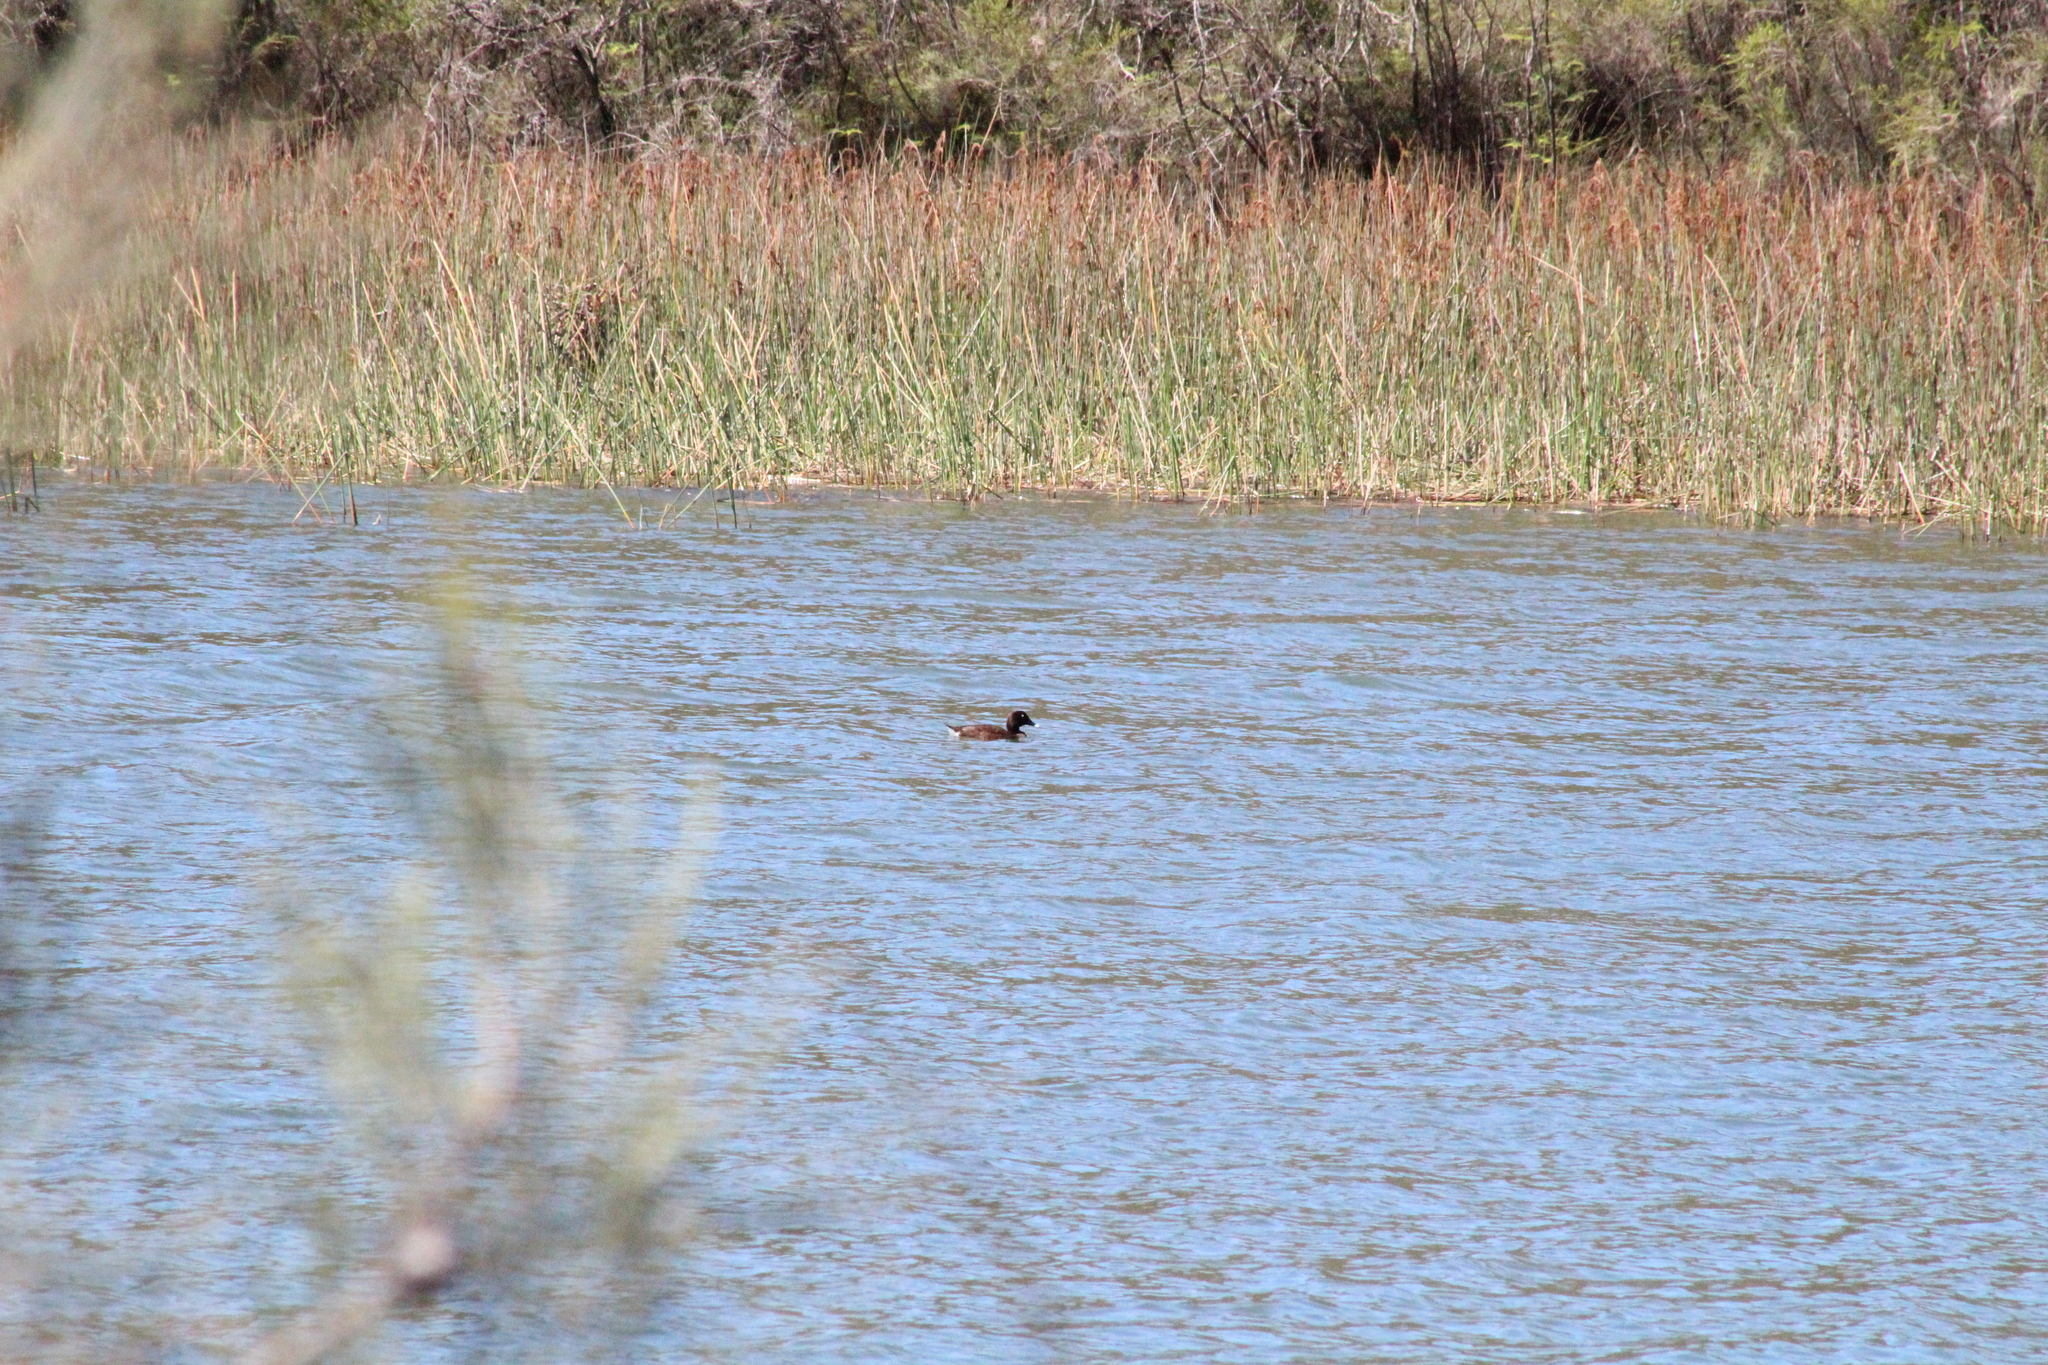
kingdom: Animalia
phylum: Chordata
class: Aves
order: Anseriformes
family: Anatidae
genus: Aythya
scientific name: Aythya australis
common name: Hardhead
